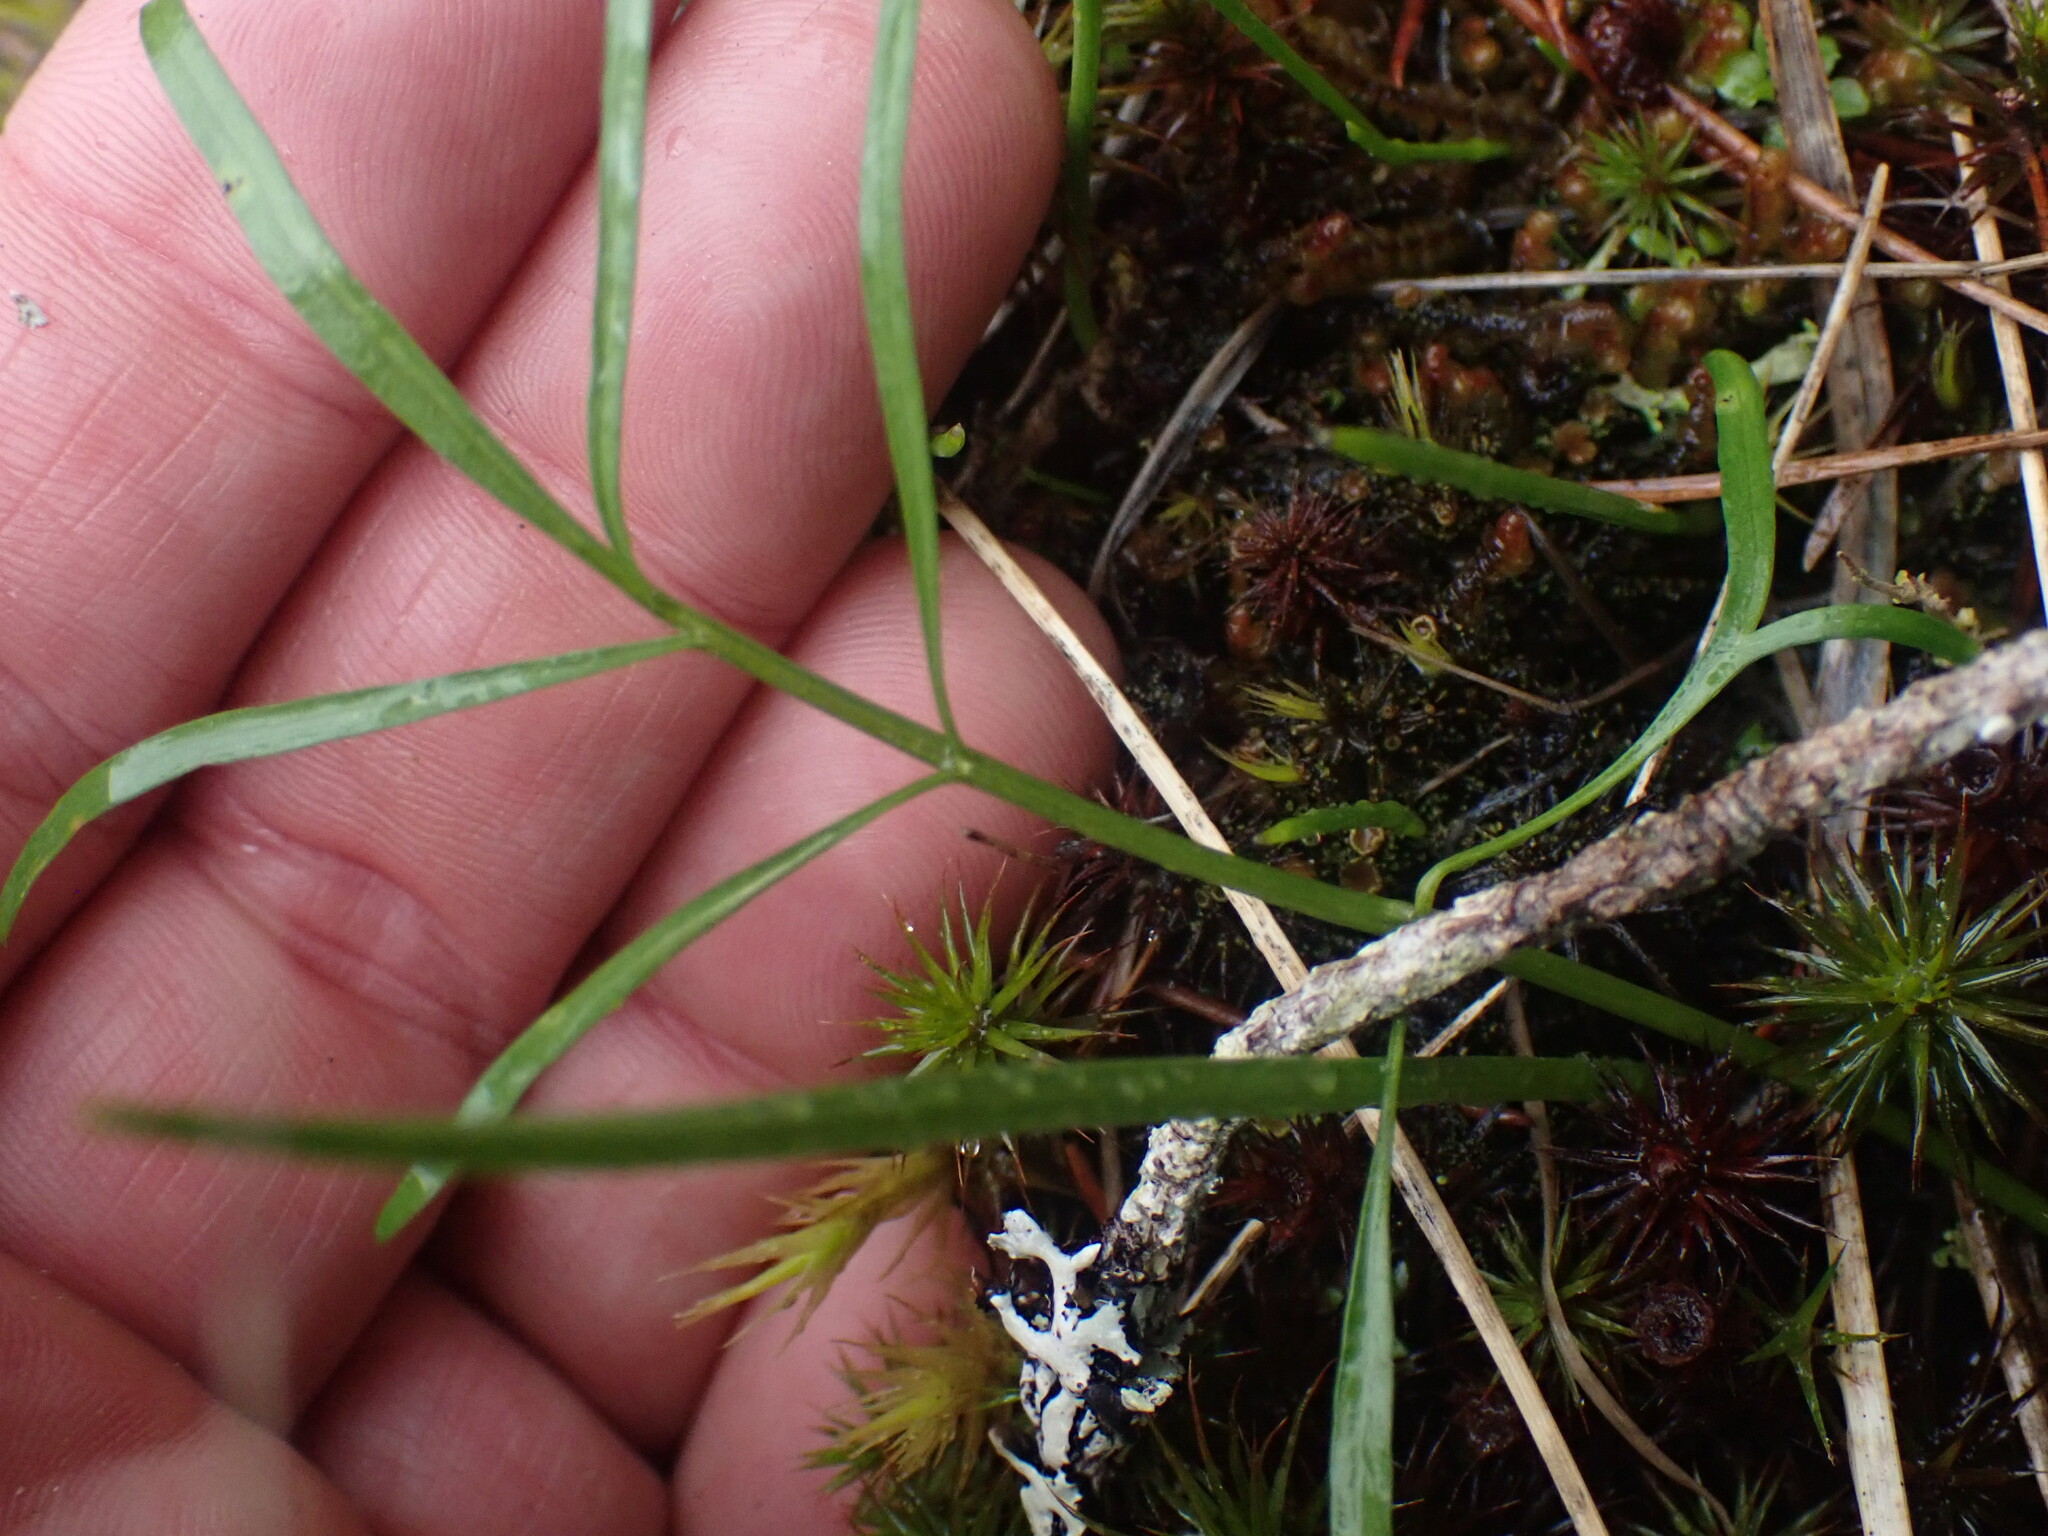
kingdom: Plantae
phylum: Tracheophyta
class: Magnoliopsida
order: Apiales
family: Apiaceae
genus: Perideridia
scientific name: Perideridia gairdneri
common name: False caraway
